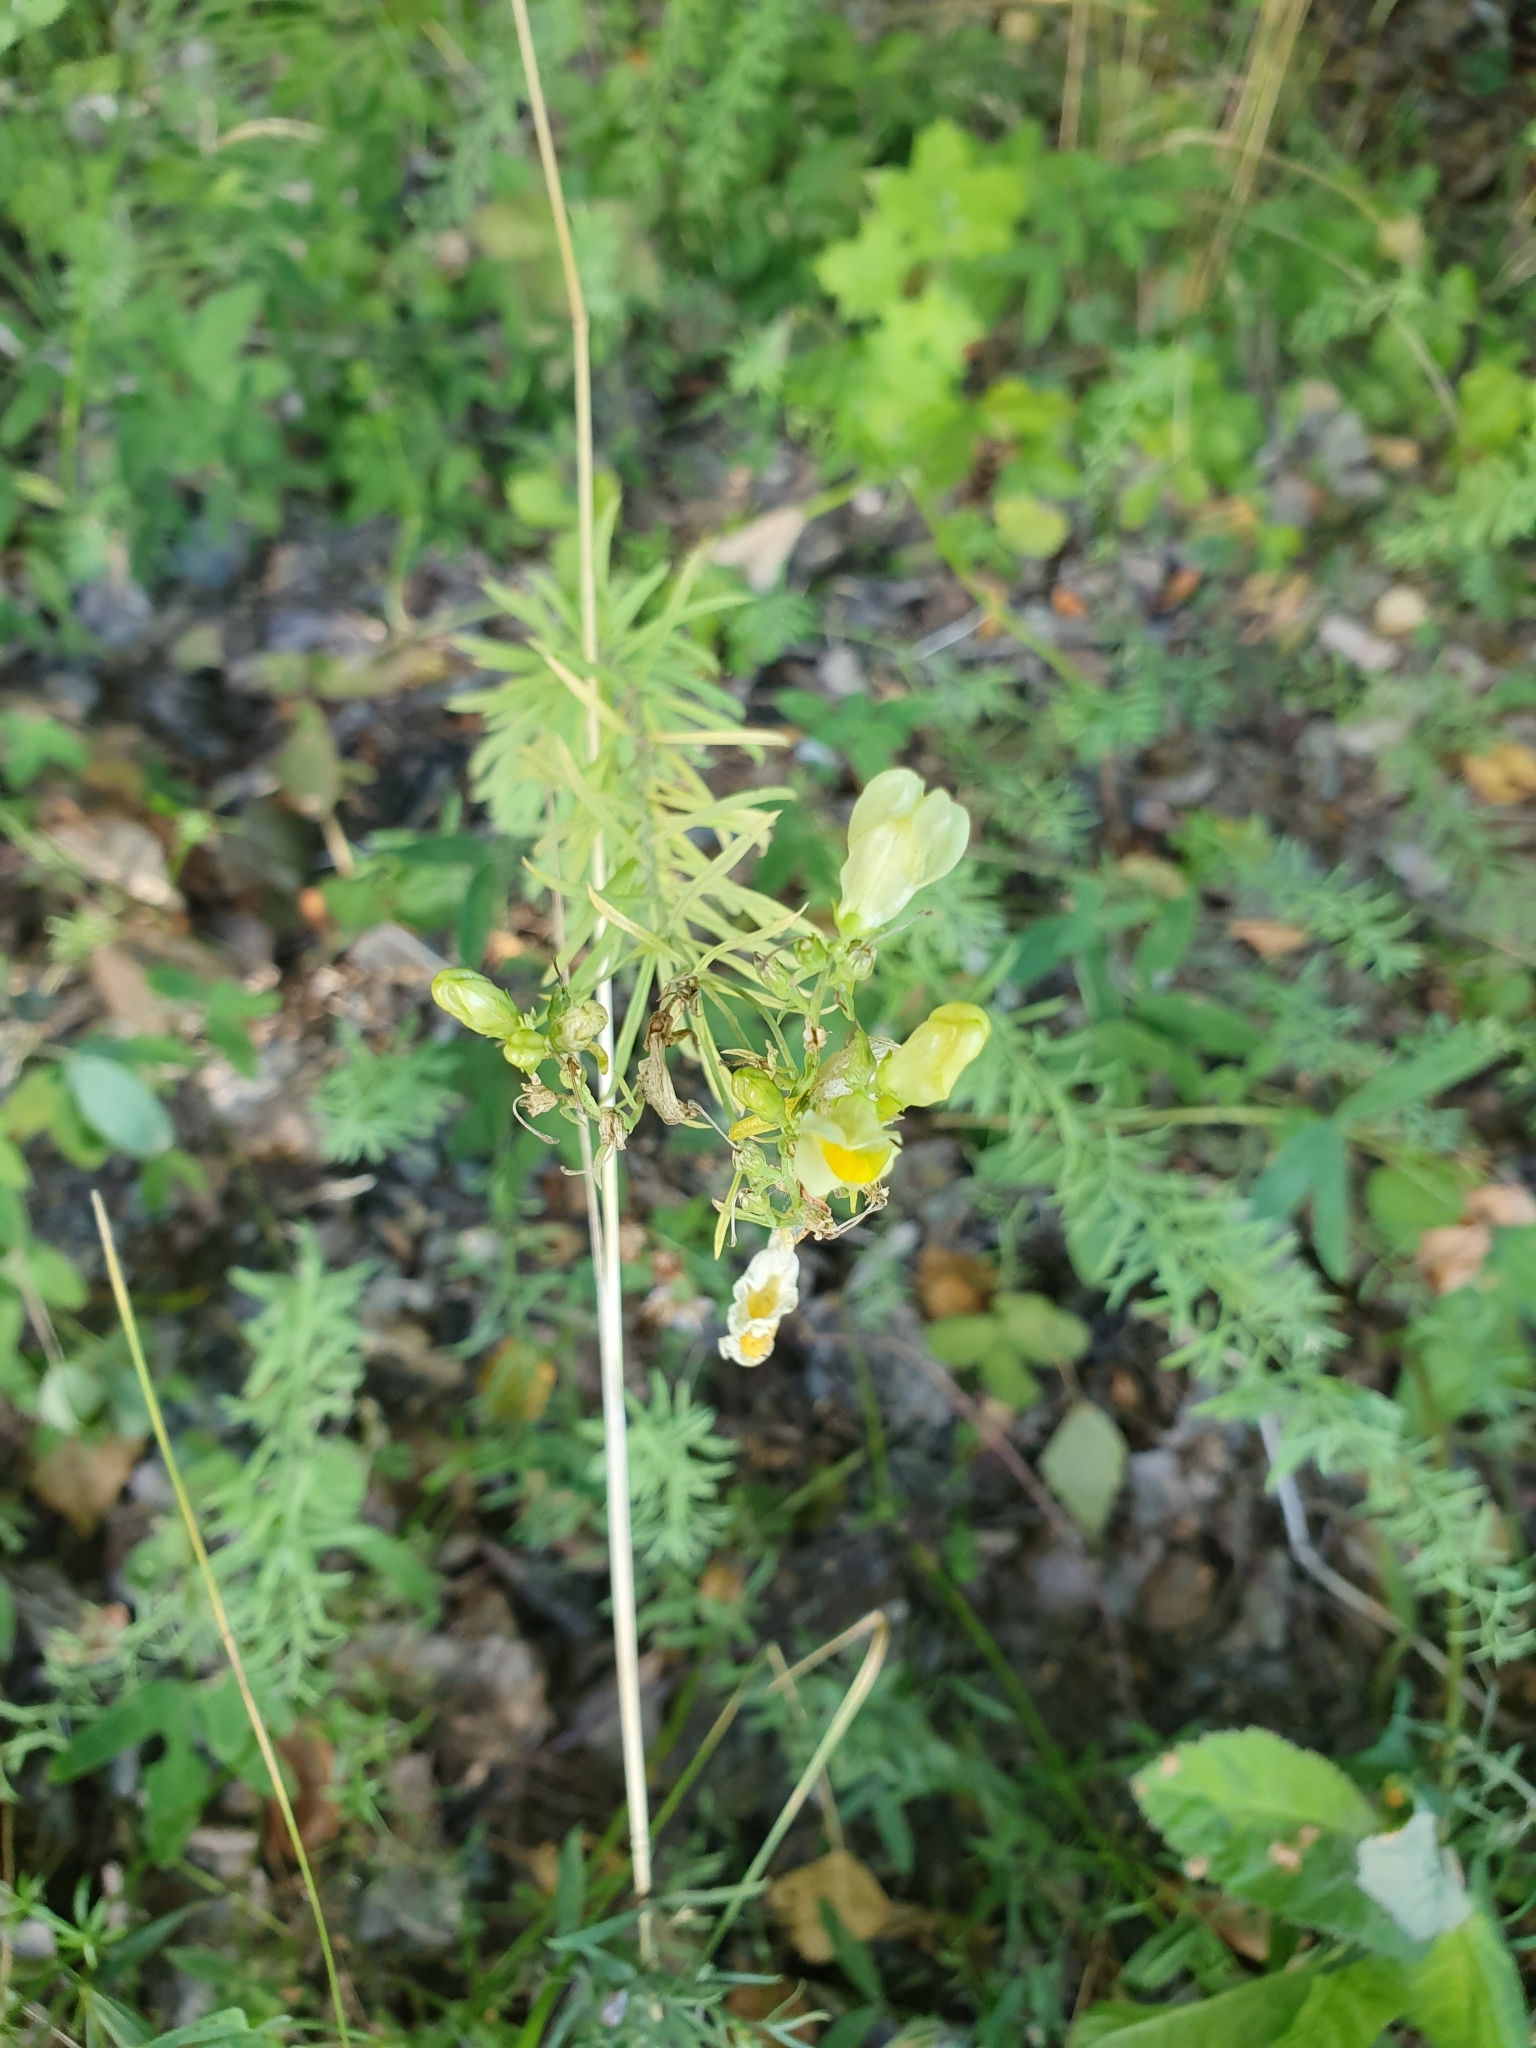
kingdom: Plantae
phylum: Tracheophyta
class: Magnoliopsida
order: Lamiales
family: Plantaginaceae
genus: Linaria
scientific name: Linaria vulgaris
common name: Butter and eggs
